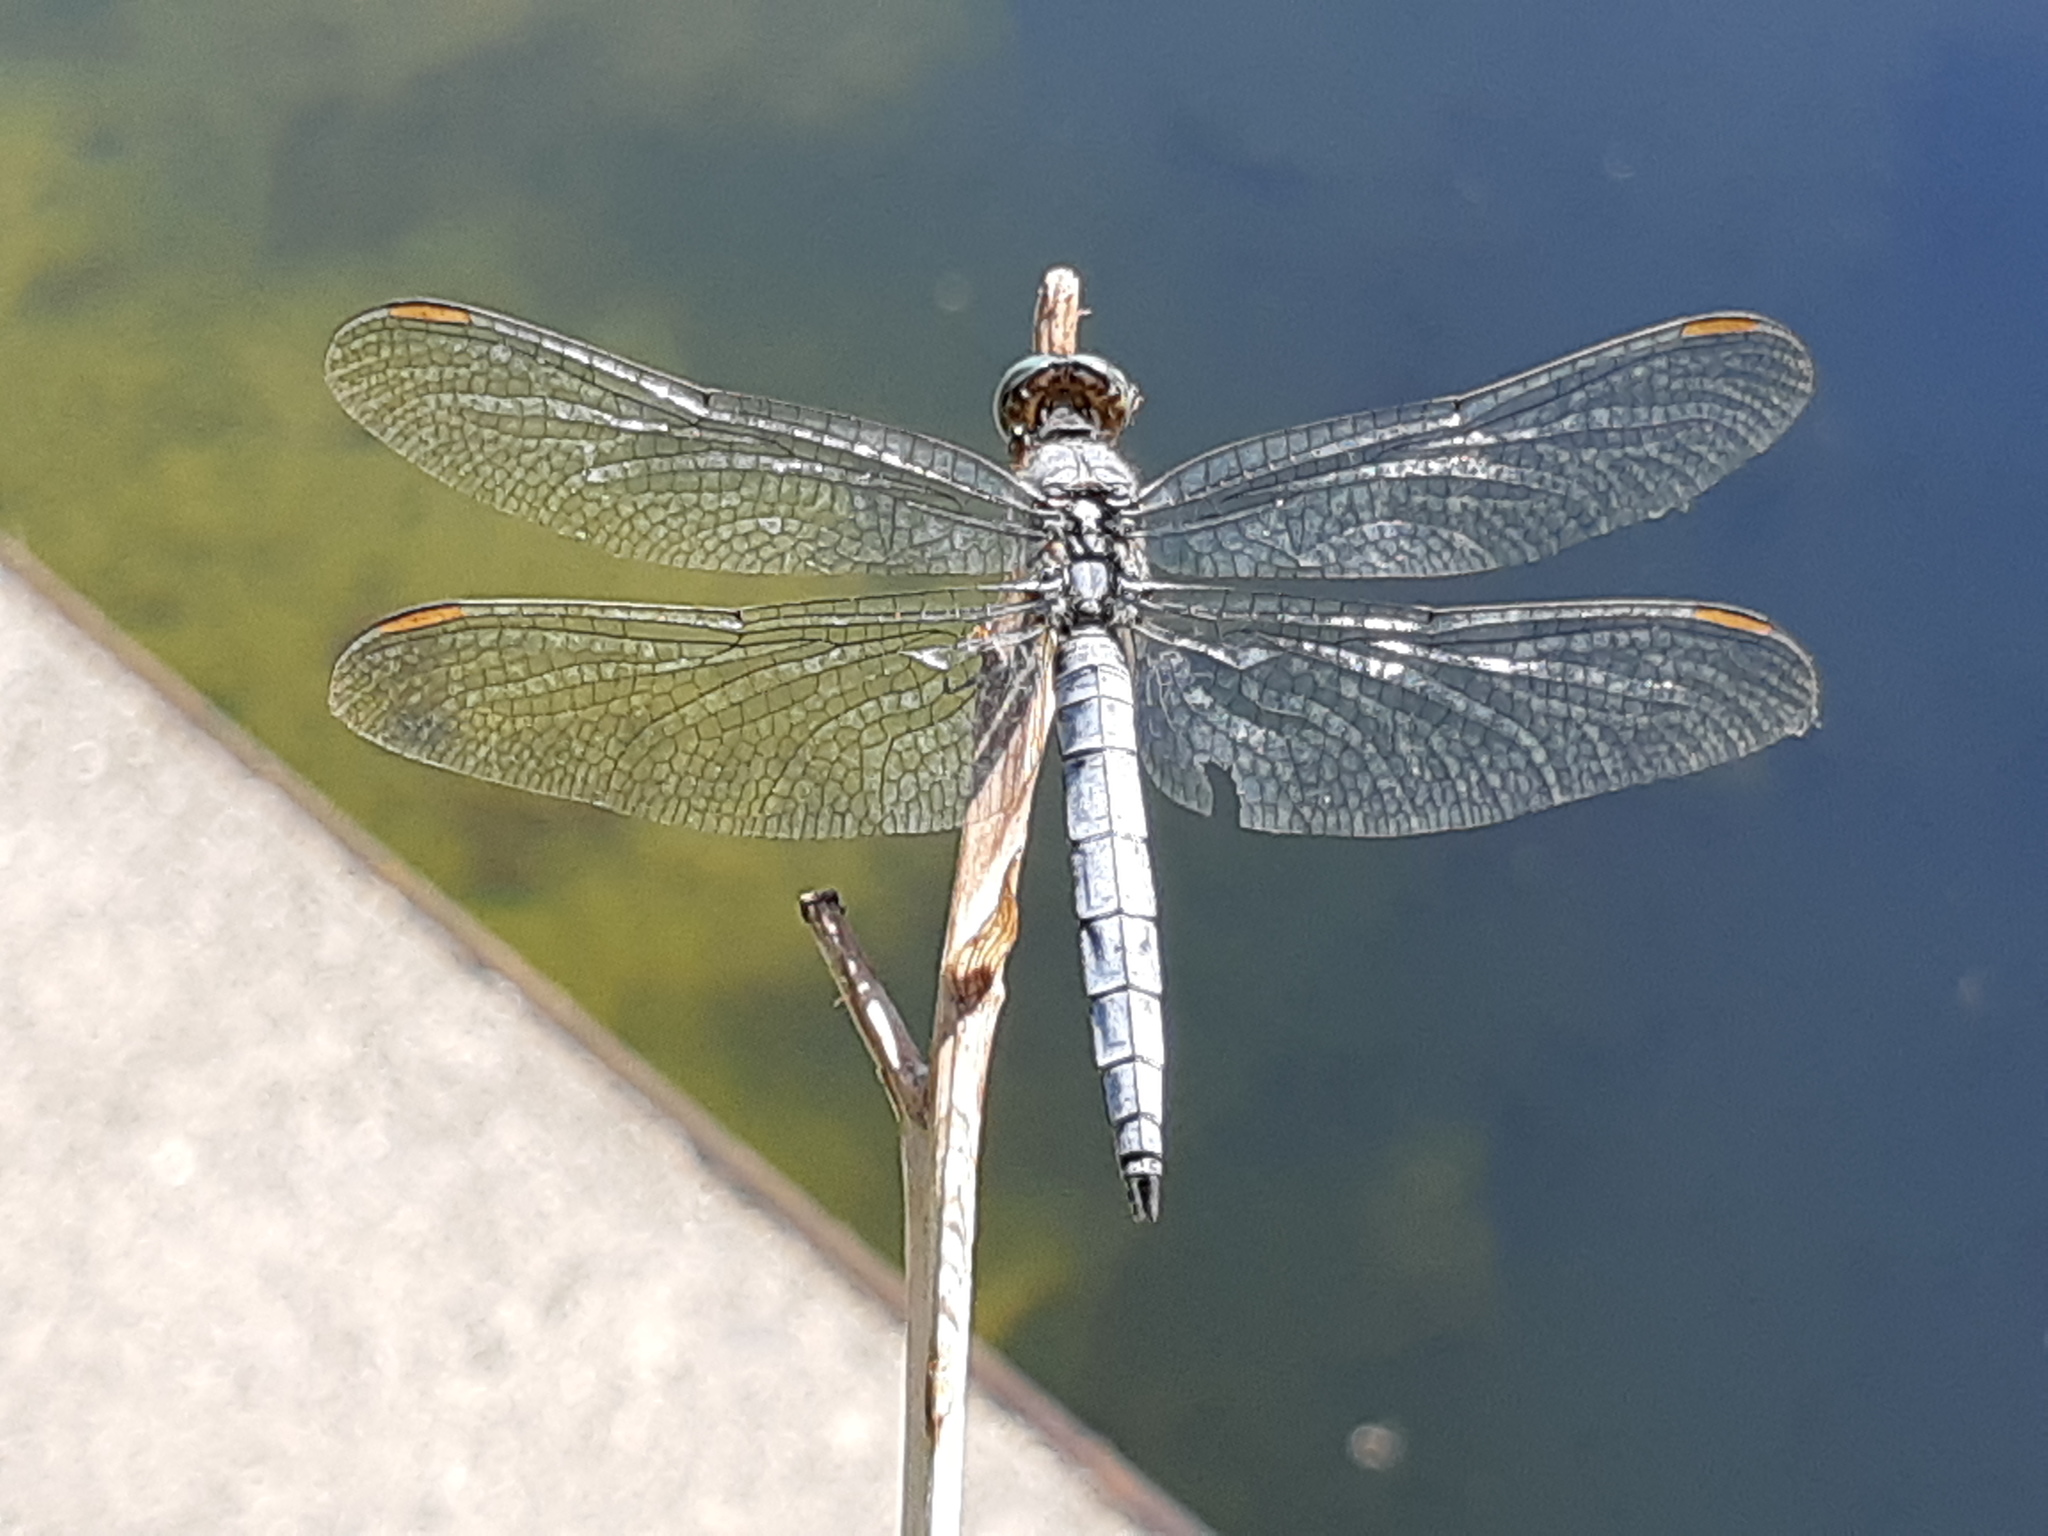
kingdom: Animalia
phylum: Arthropoda
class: Insecta
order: Odonata
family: Libellulidae
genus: Orthetrum
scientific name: Orthetrum coerulescens
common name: Keeled skimmer
